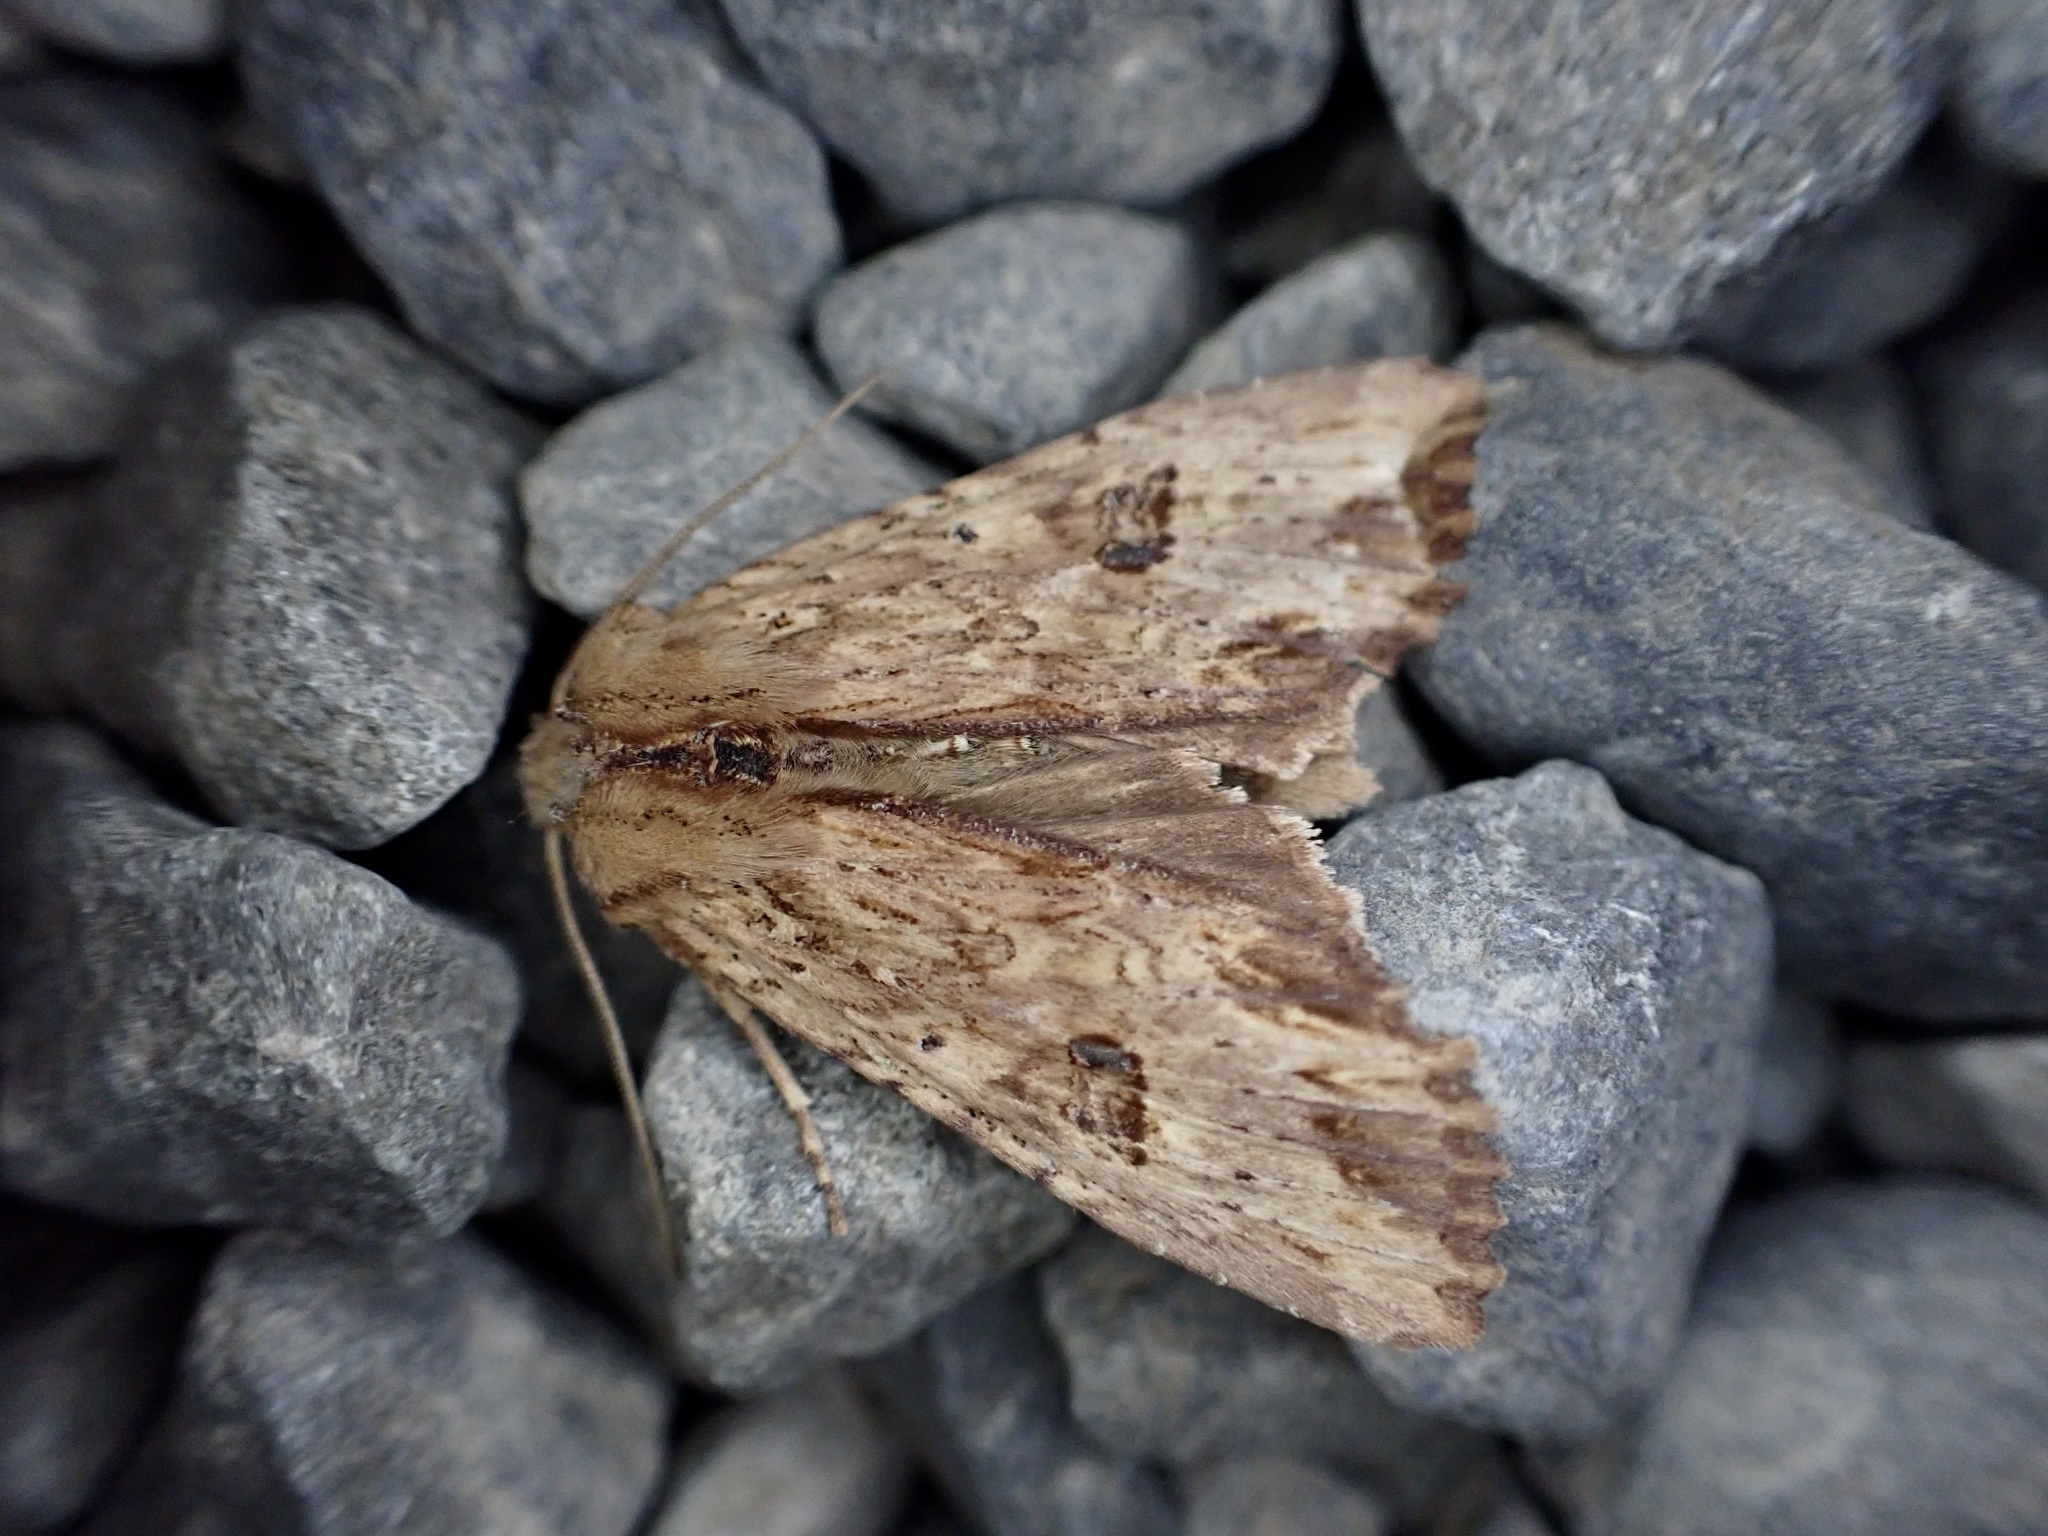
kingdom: Animalia
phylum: Arthropoda
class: Insecta
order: Lepidoptera
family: Noctuidae
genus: Ichneutica
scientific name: Ichneutica
